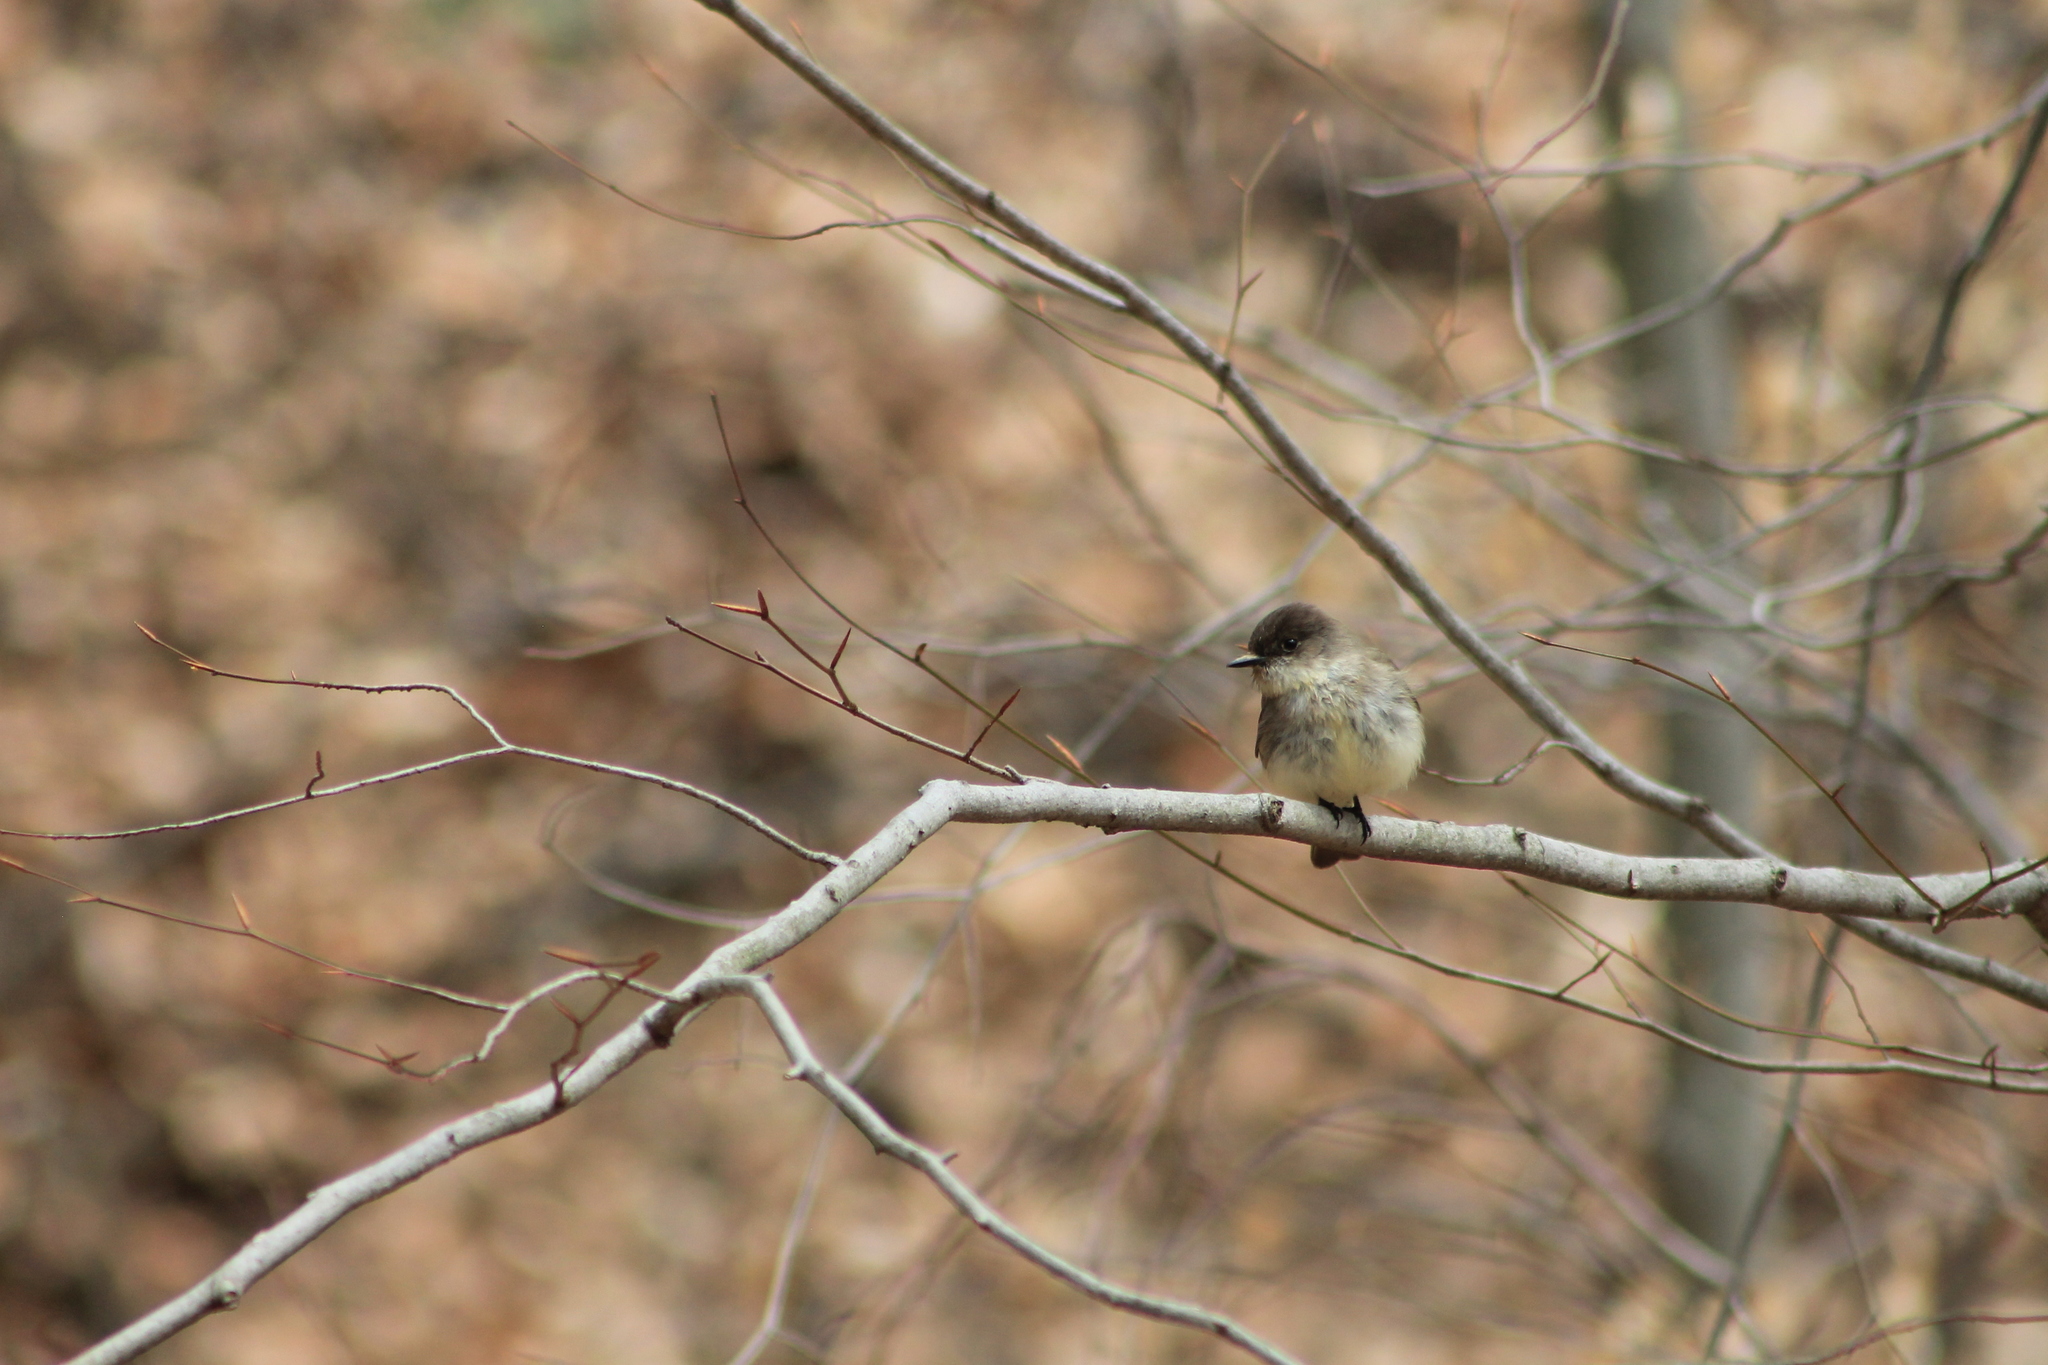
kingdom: Animalia
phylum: Chordata
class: Aves
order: Passeriformes
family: Tyrannidae
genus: Sayornis
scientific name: Sayornis phoebe
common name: Eastern phoebe
